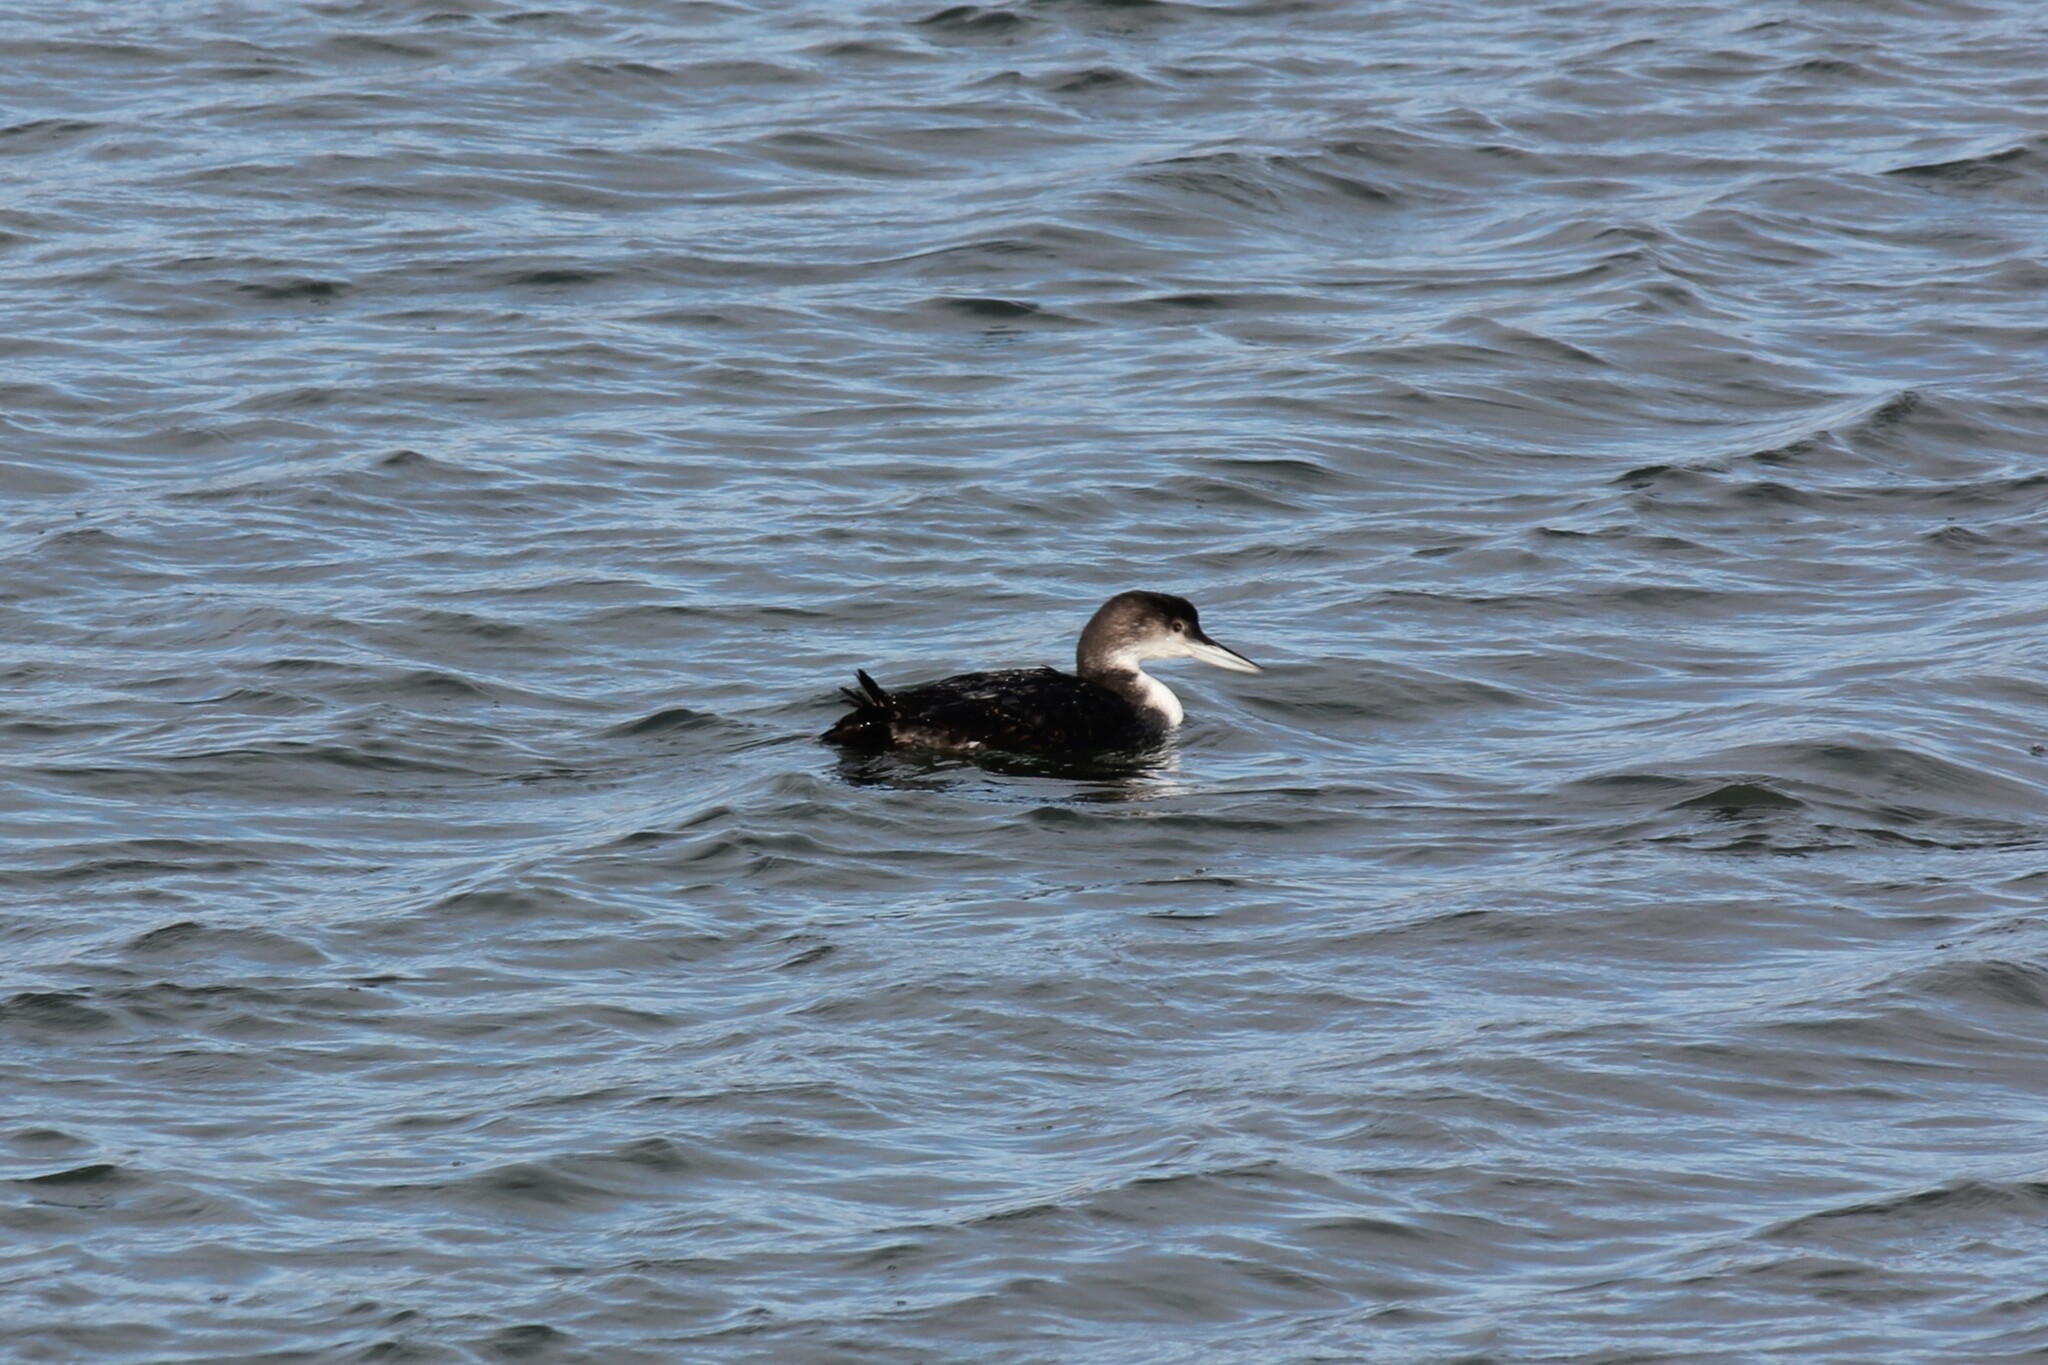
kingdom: Animalia
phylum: Chordata
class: Aves
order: Gaviiformes
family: Gaviidae
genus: Gavia
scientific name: Gavia immer
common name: Common loon
